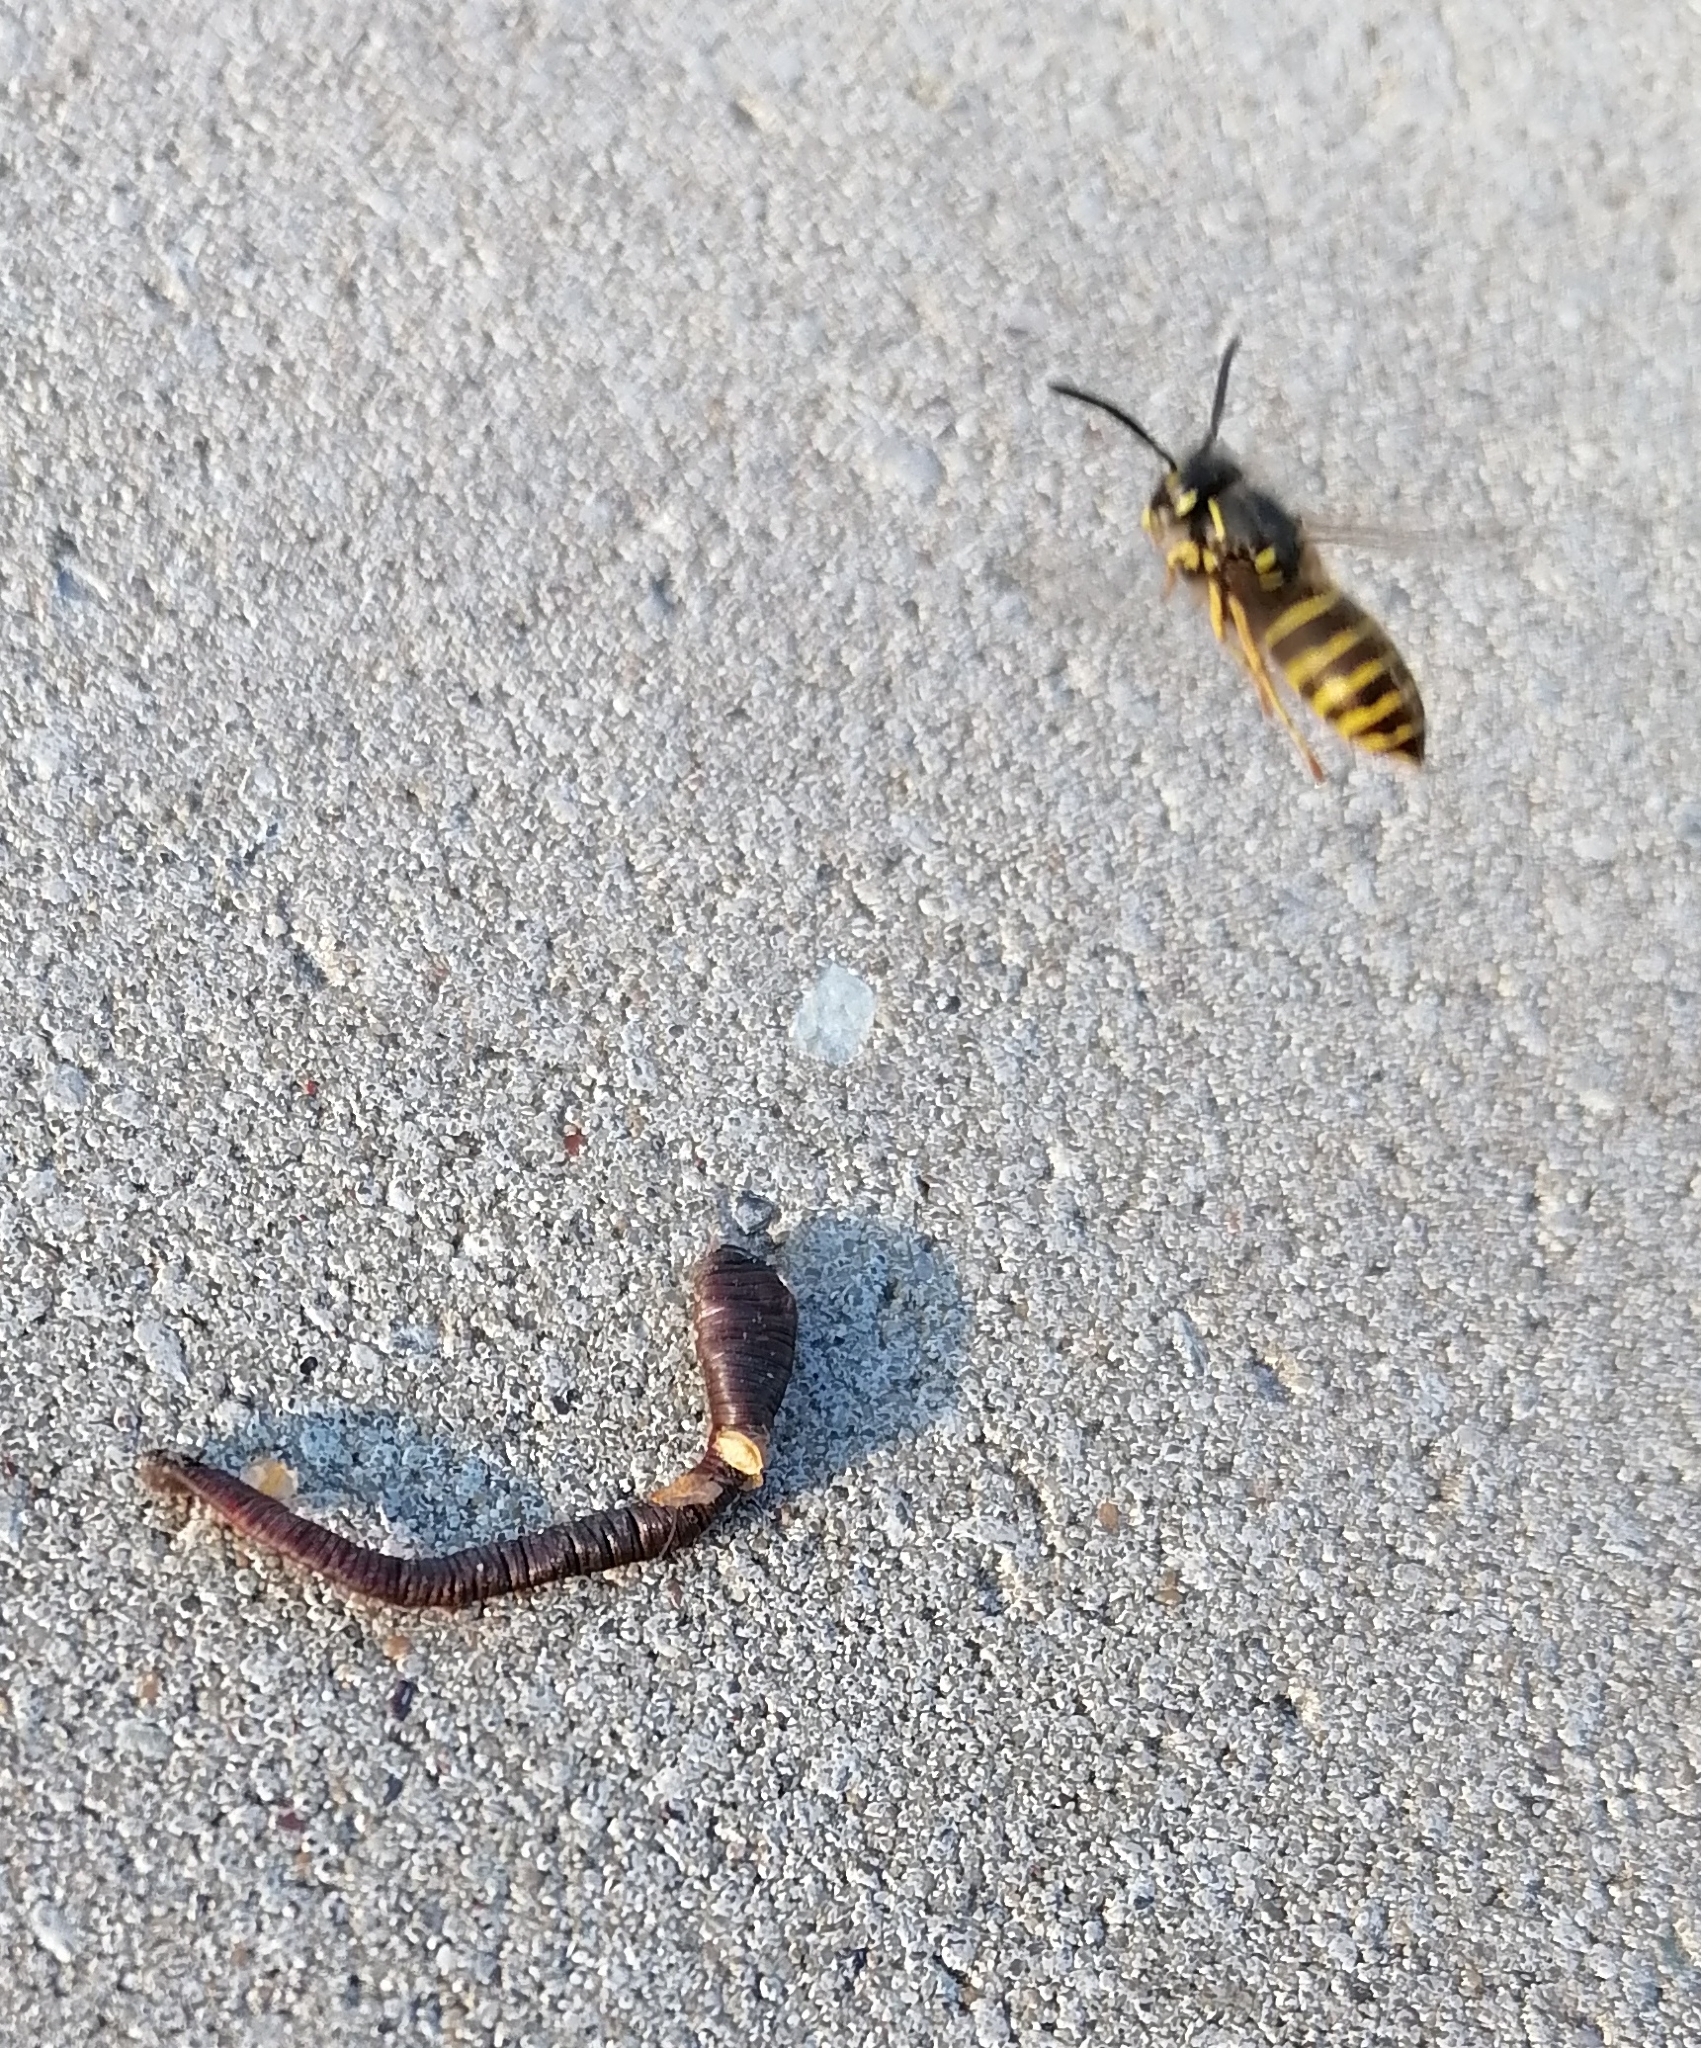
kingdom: Animalia
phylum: Arthropoda
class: Insecta
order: Hymenoptera
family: Vespidae
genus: Vespula
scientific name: Vespula vulgaris
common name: Common wasp
